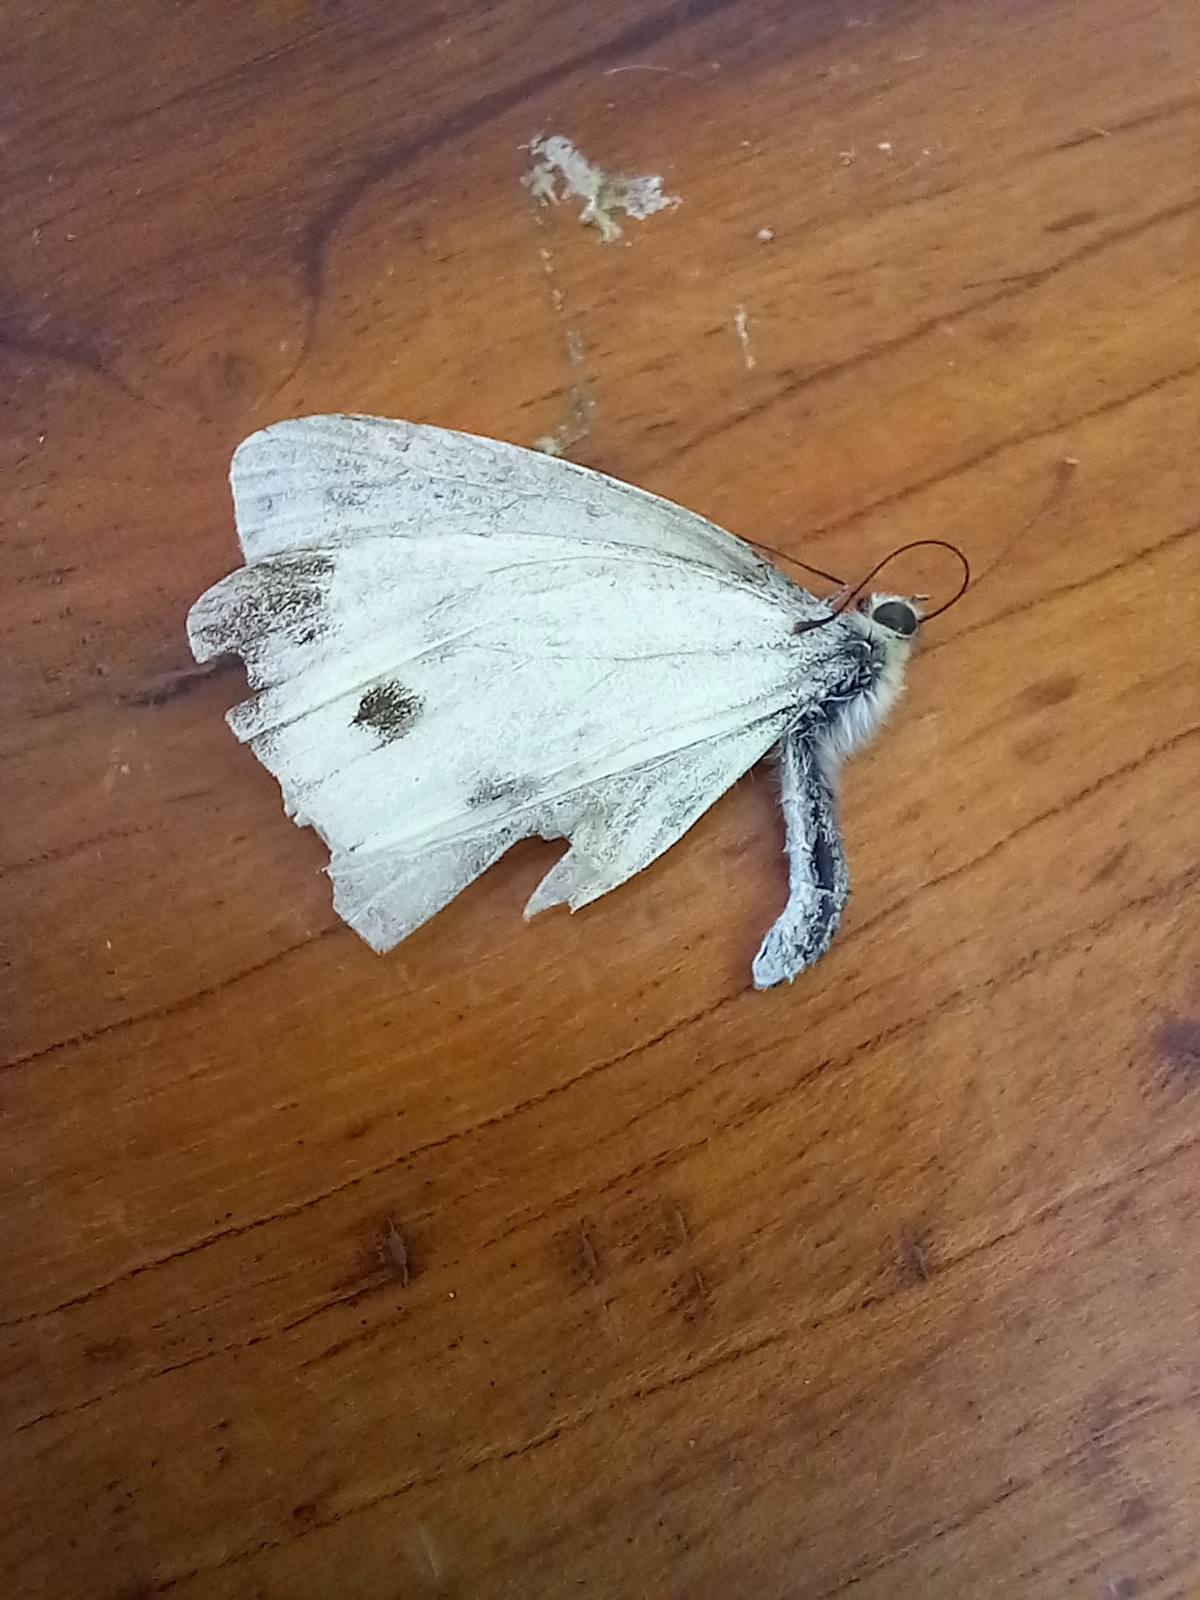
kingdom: Animalia
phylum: Arthropoda
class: Insecta
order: Lepidoptera
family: Pieridae
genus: Pieris
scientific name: Pieris rapae
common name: Small white
